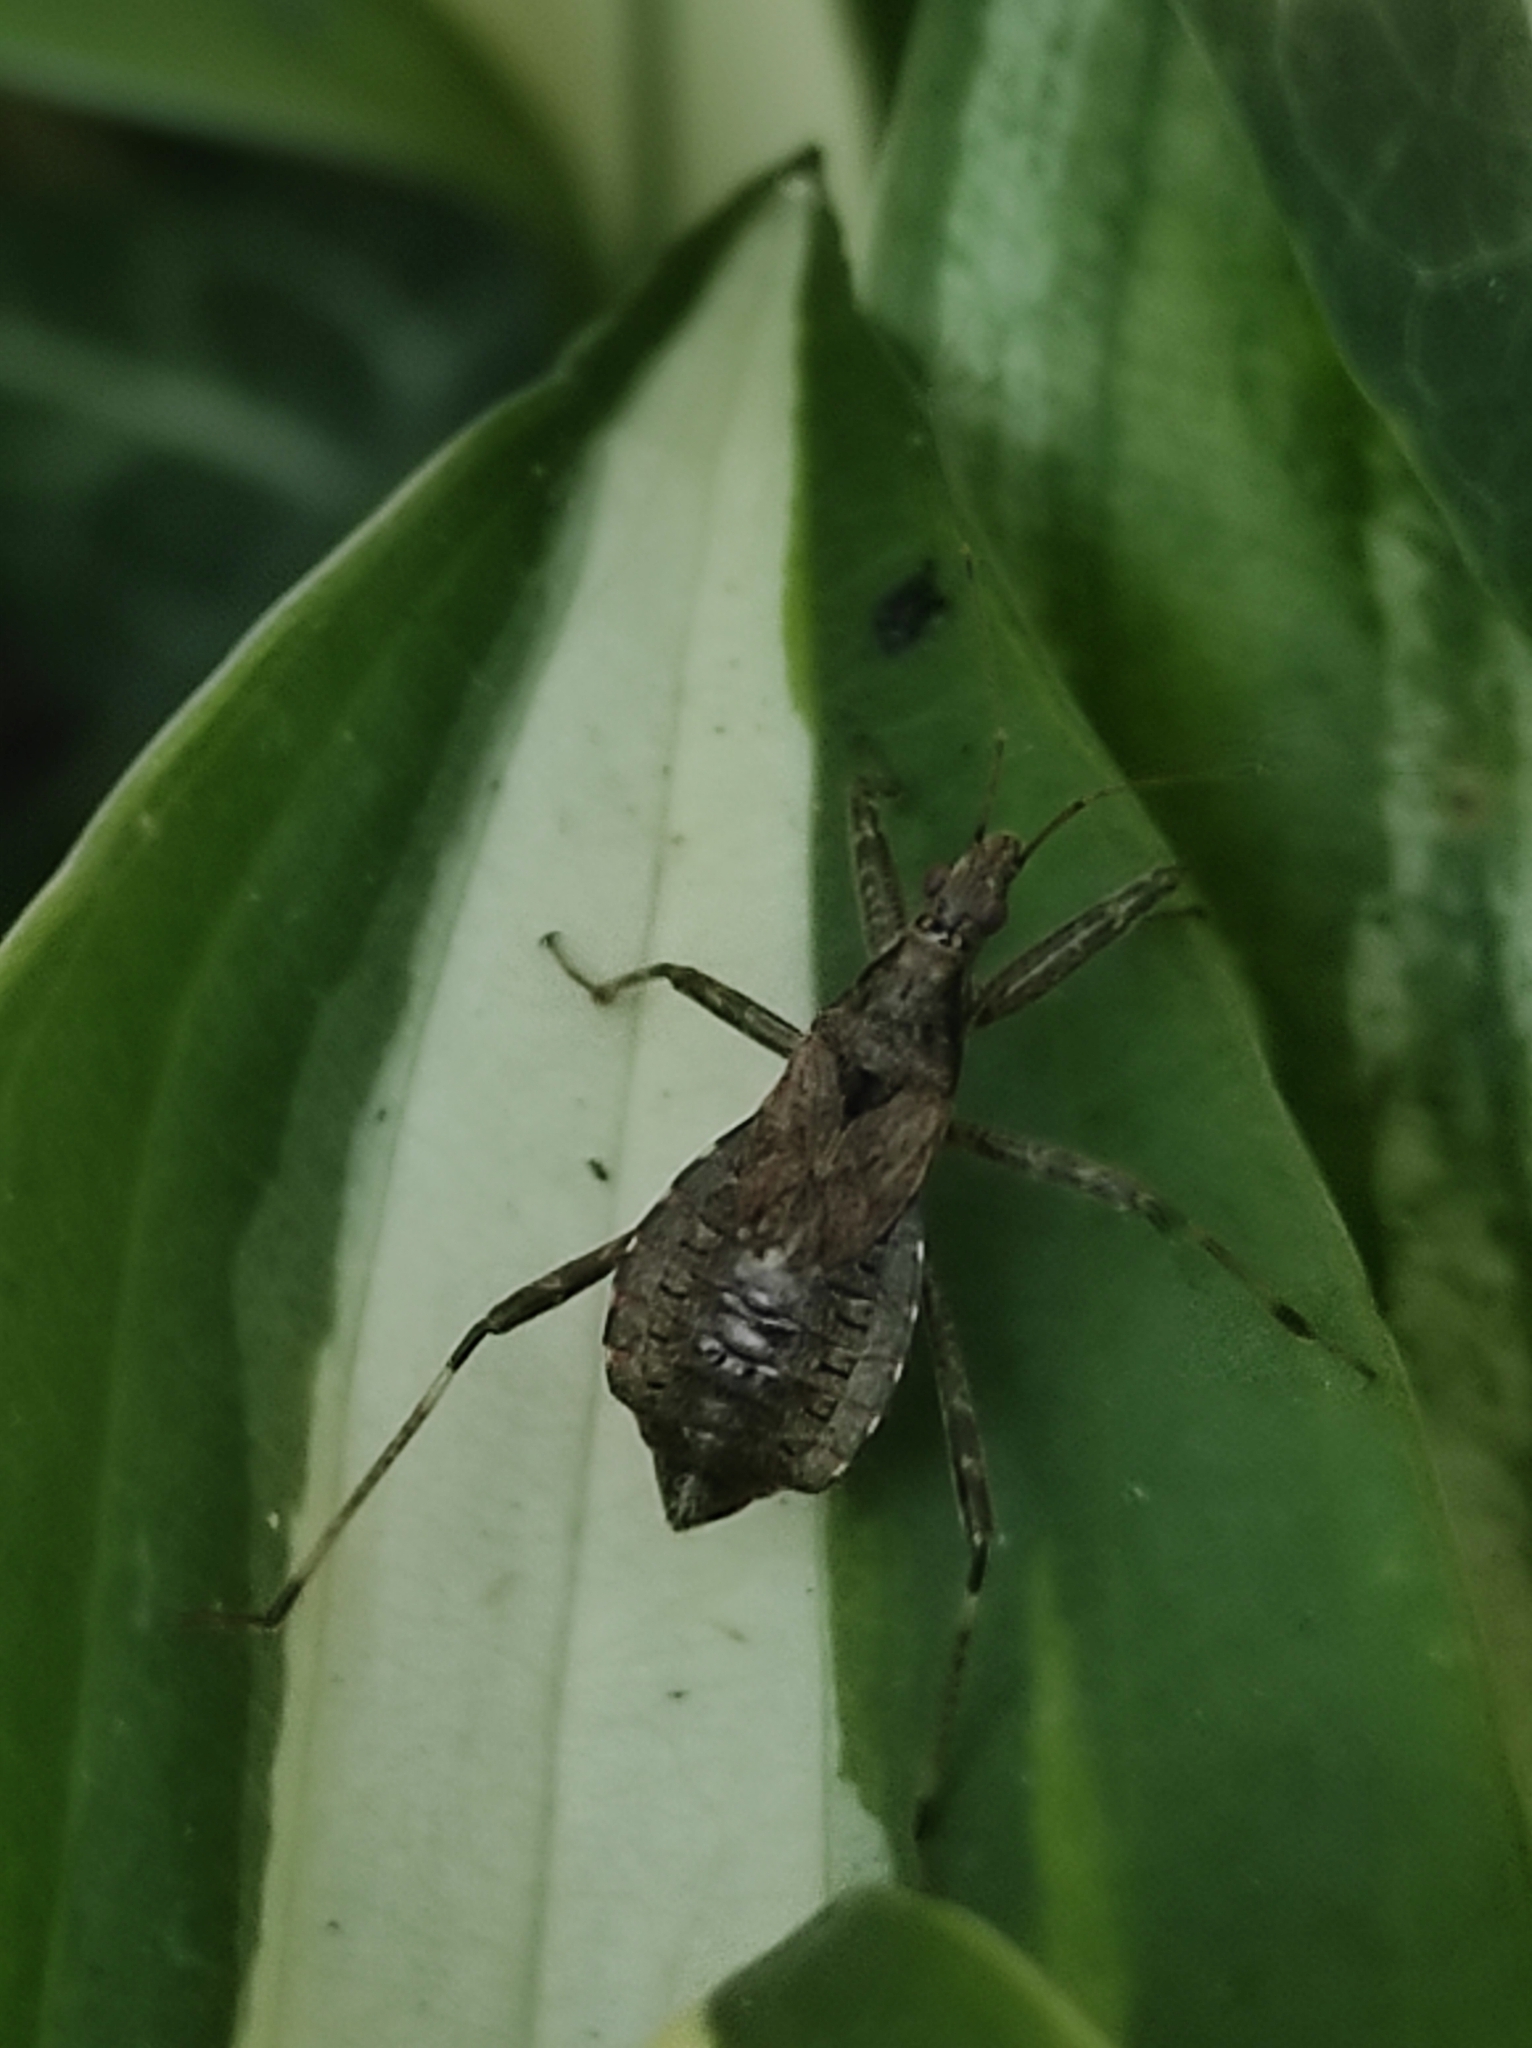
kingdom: Animalia
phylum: Arthropoda
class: Insecta
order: Hemiptera
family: Nabidae
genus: Himacerus
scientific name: Himacerus apterus
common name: Tree damsel bug
